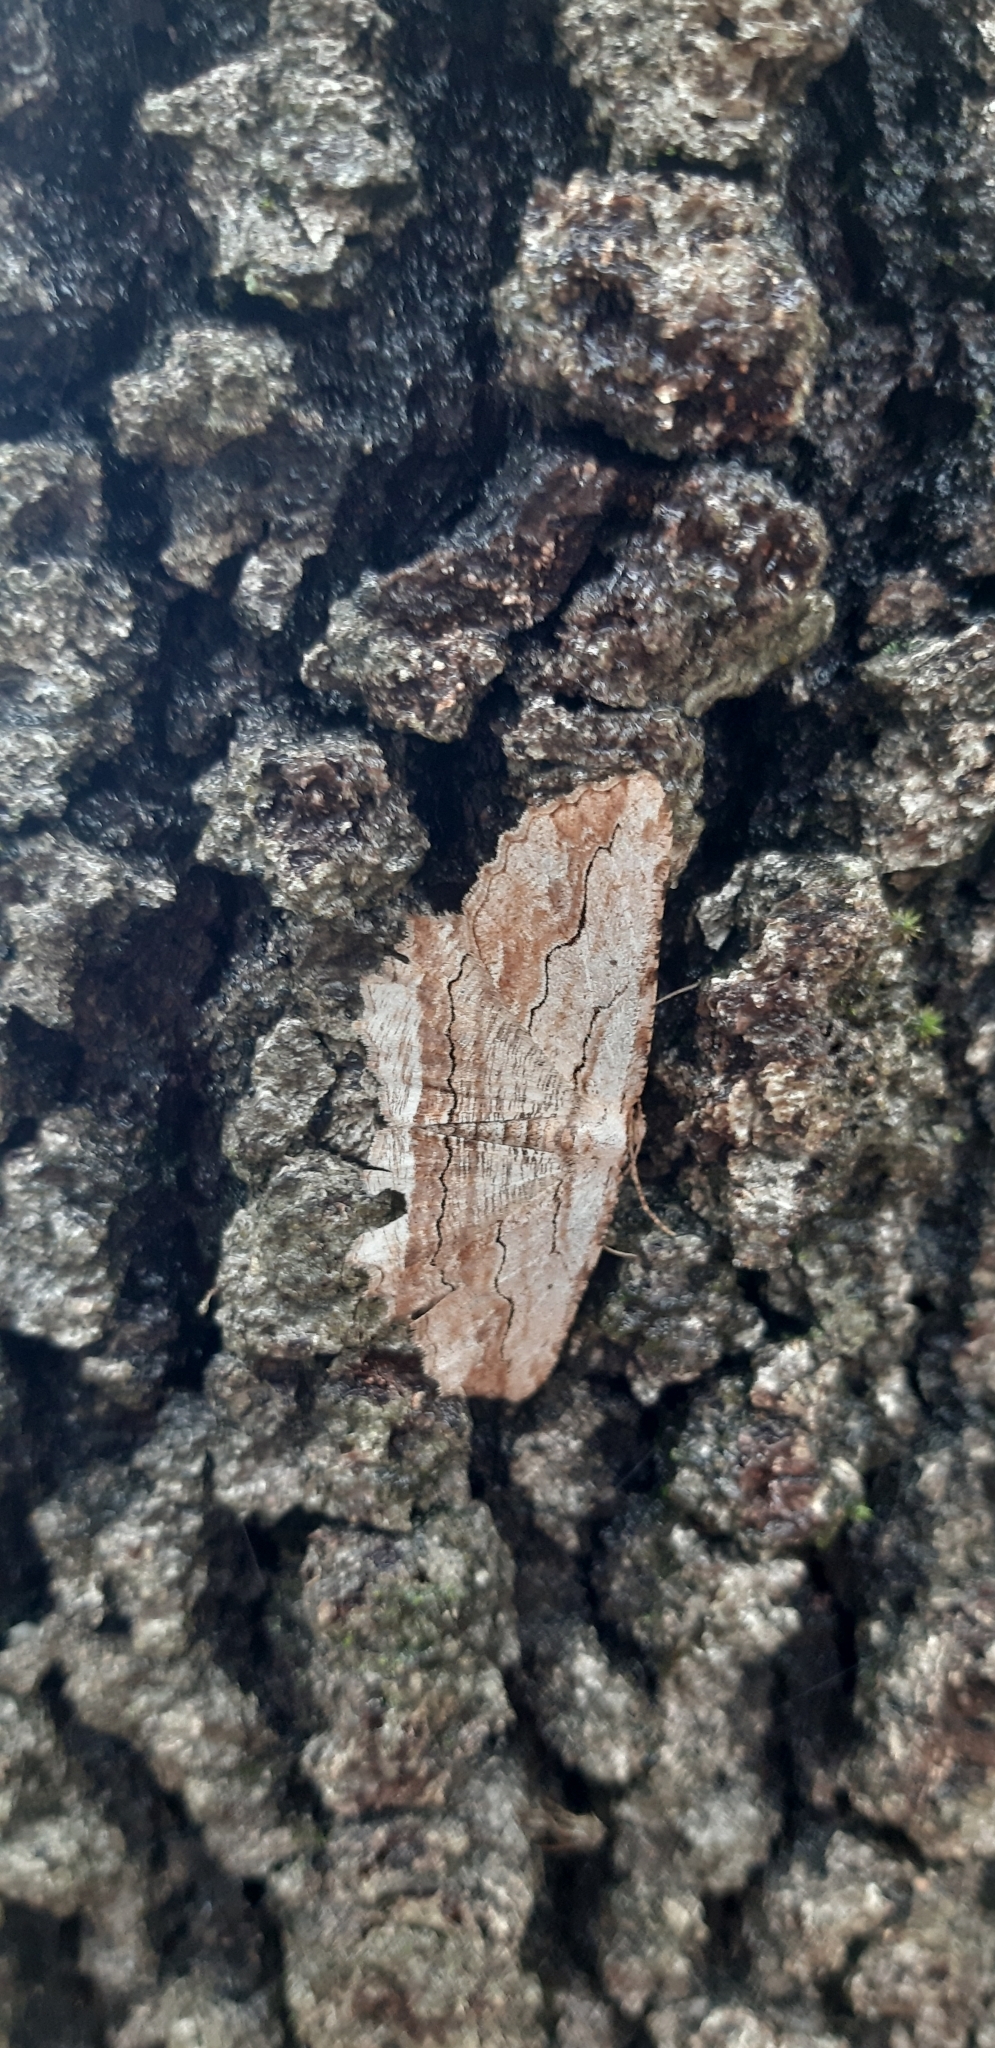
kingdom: Animalia
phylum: Arthropoda
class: Insecta
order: Lepidoptera
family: Geometridae
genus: Menophra
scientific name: Menophra abruptaria
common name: Waved umber
